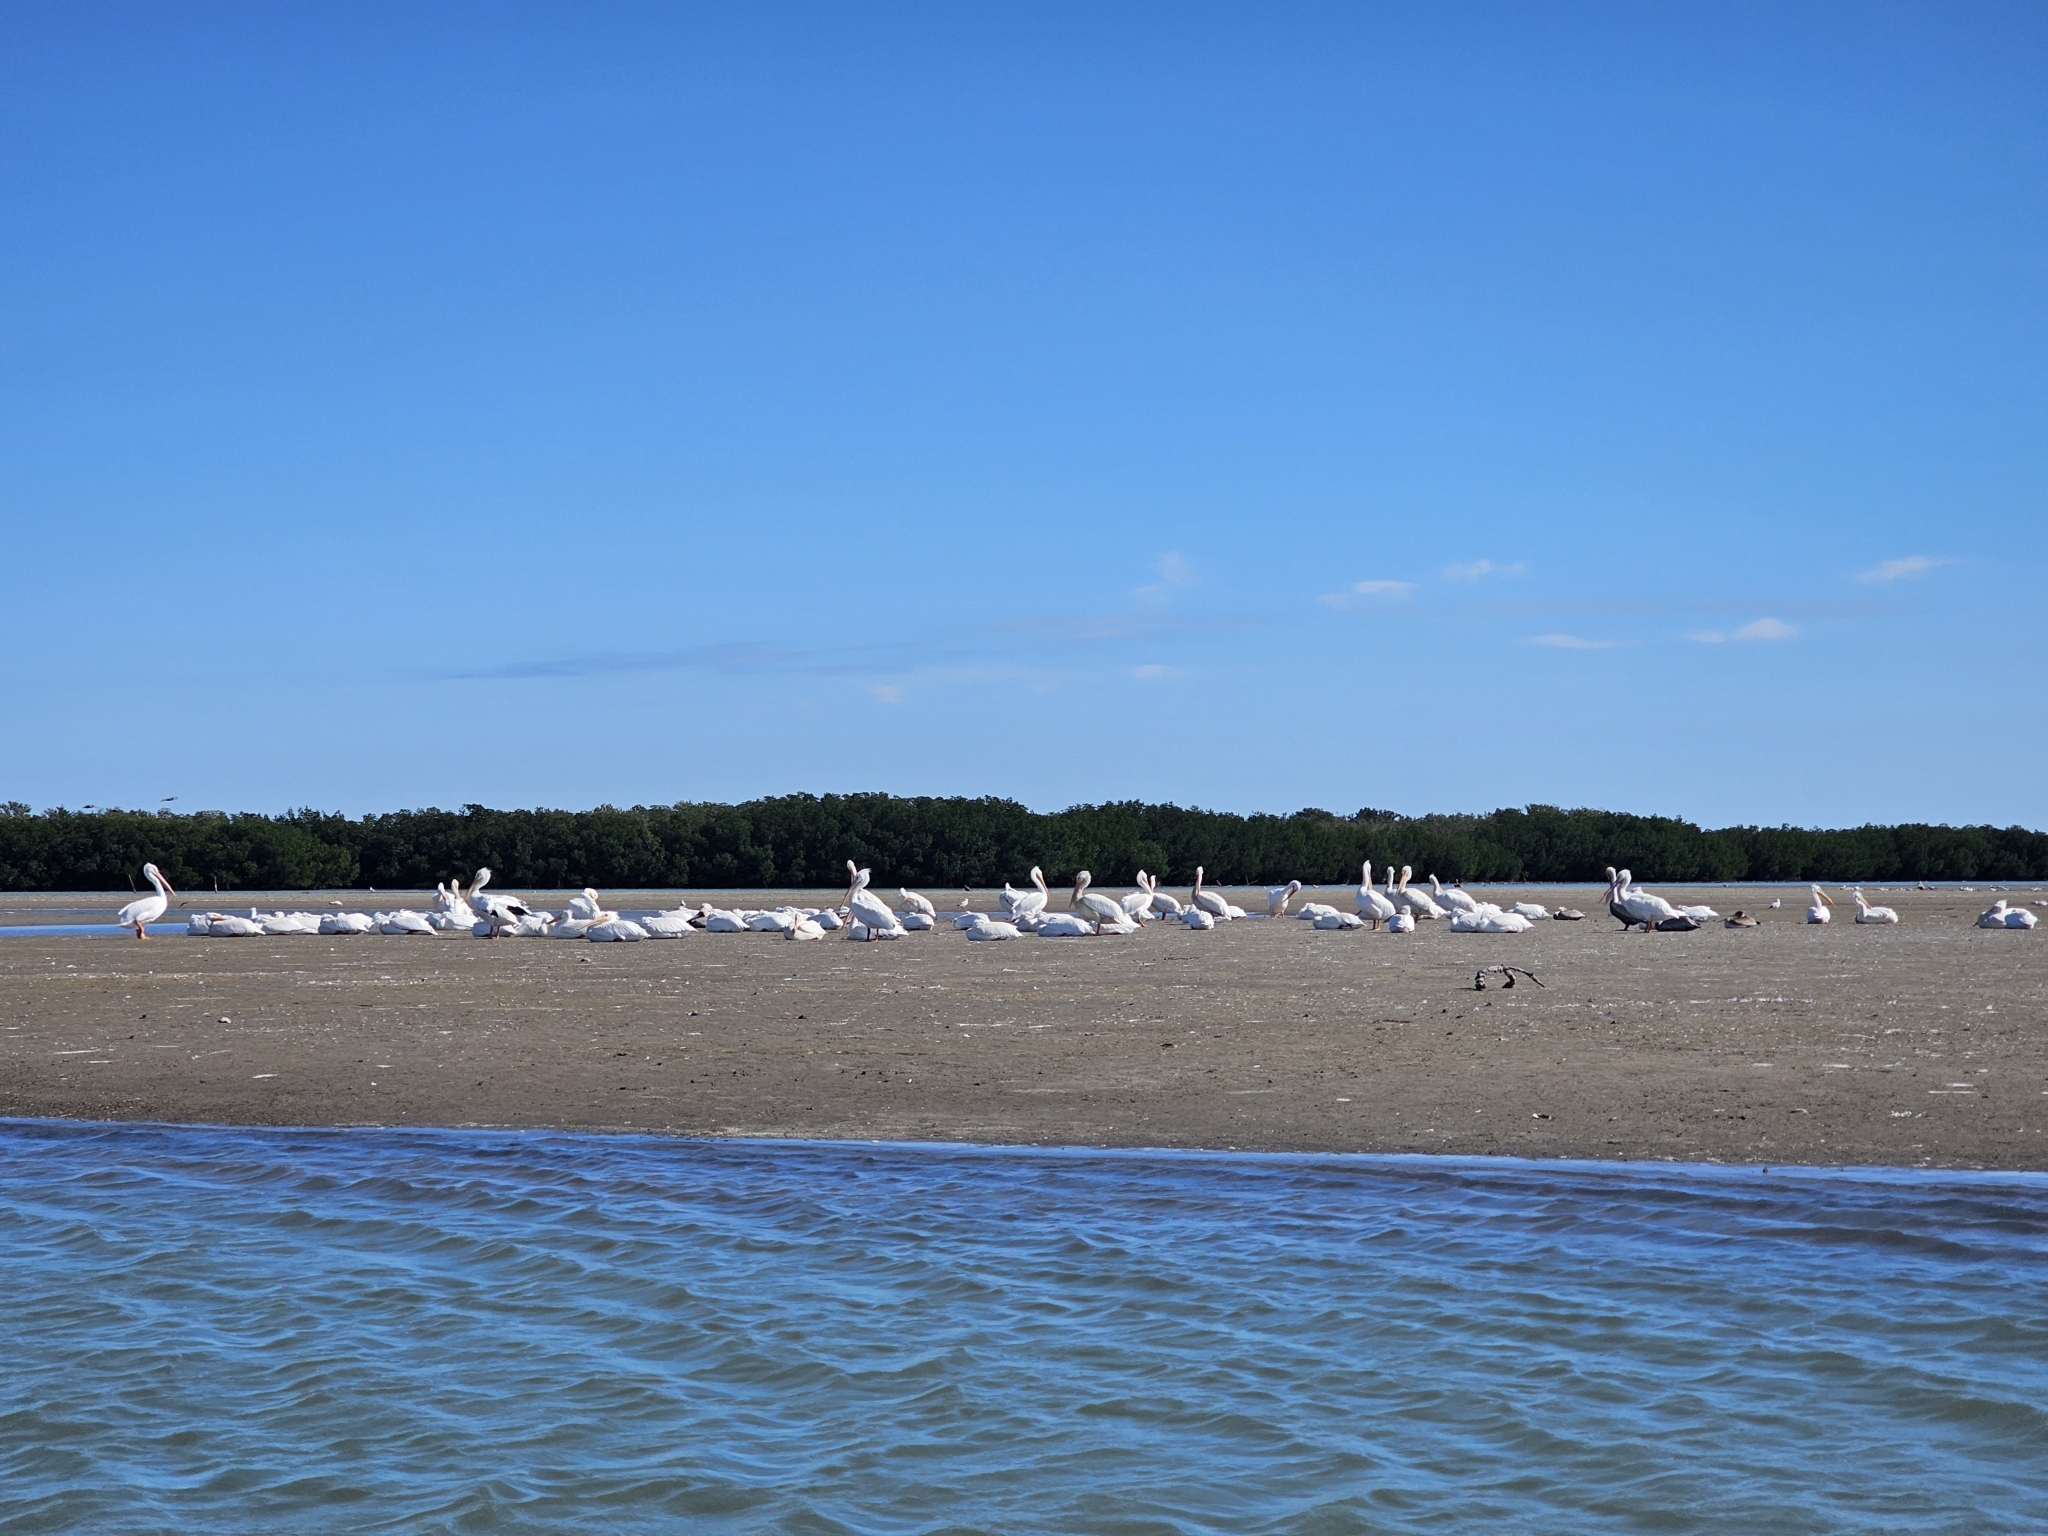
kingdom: Animalia
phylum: Chordata
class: Aves
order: Pelecaniformes
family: Pelecanidae
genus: Pelecanus
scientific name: Pelecanus erythrorhynchos
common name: American white pelican
